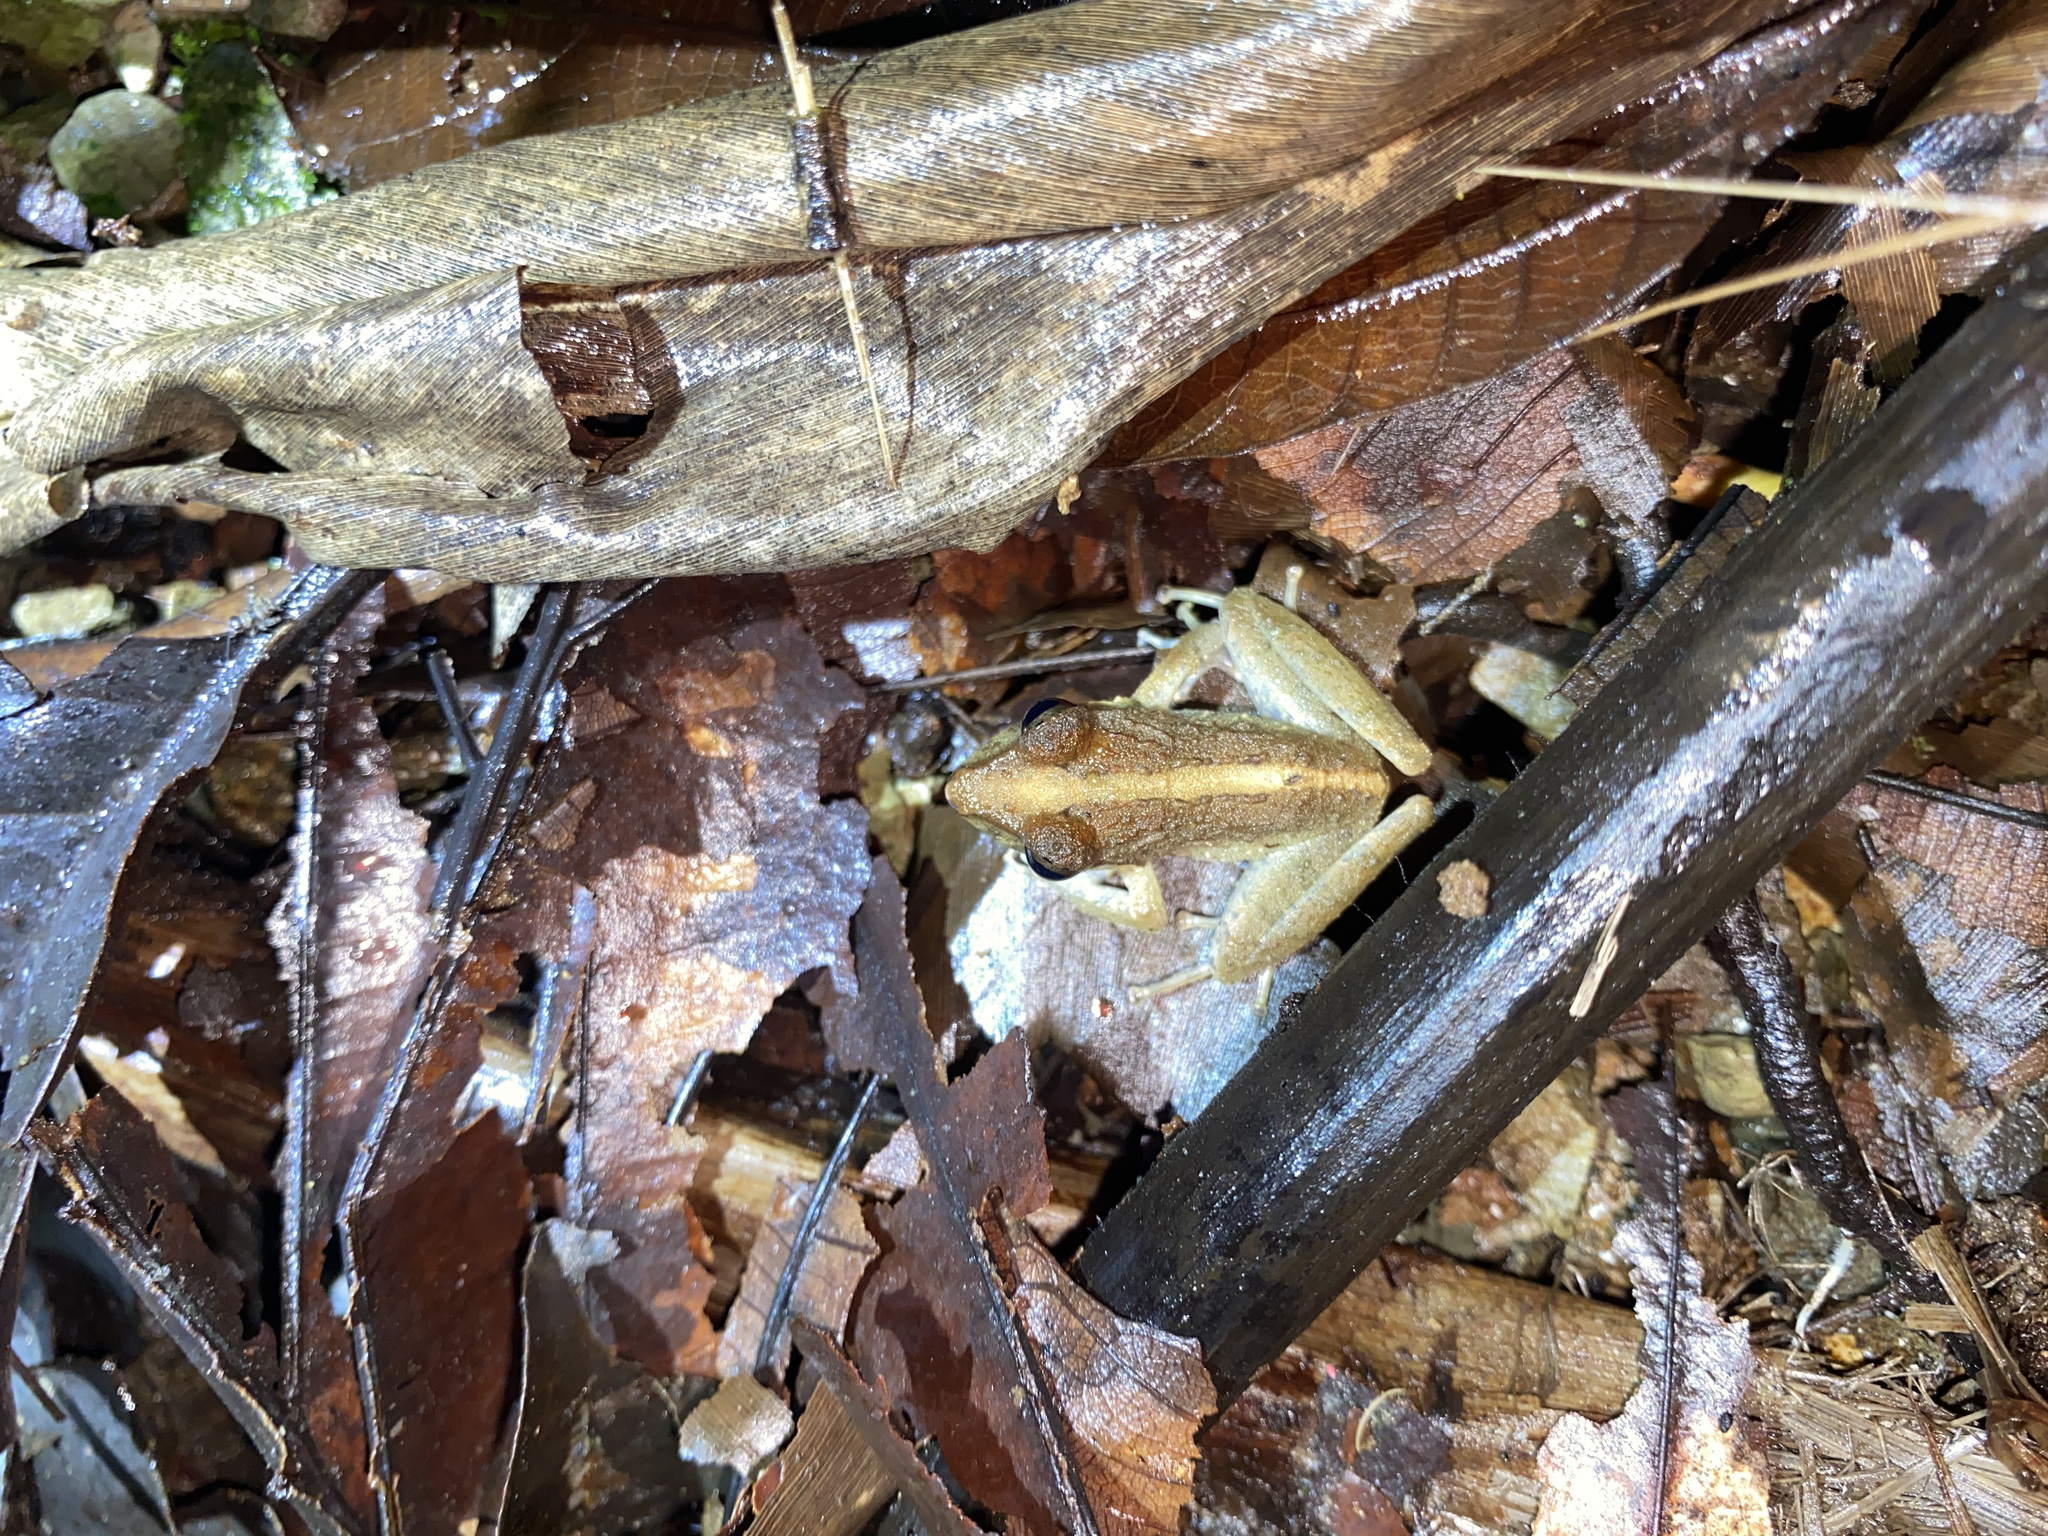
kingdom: Animalia
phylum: Chordata
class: Amphibia
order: Anura
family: Craugastoridae
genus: Craugastor
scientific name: Craugastor fitzingeri
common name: Fitzinger's robber frog
